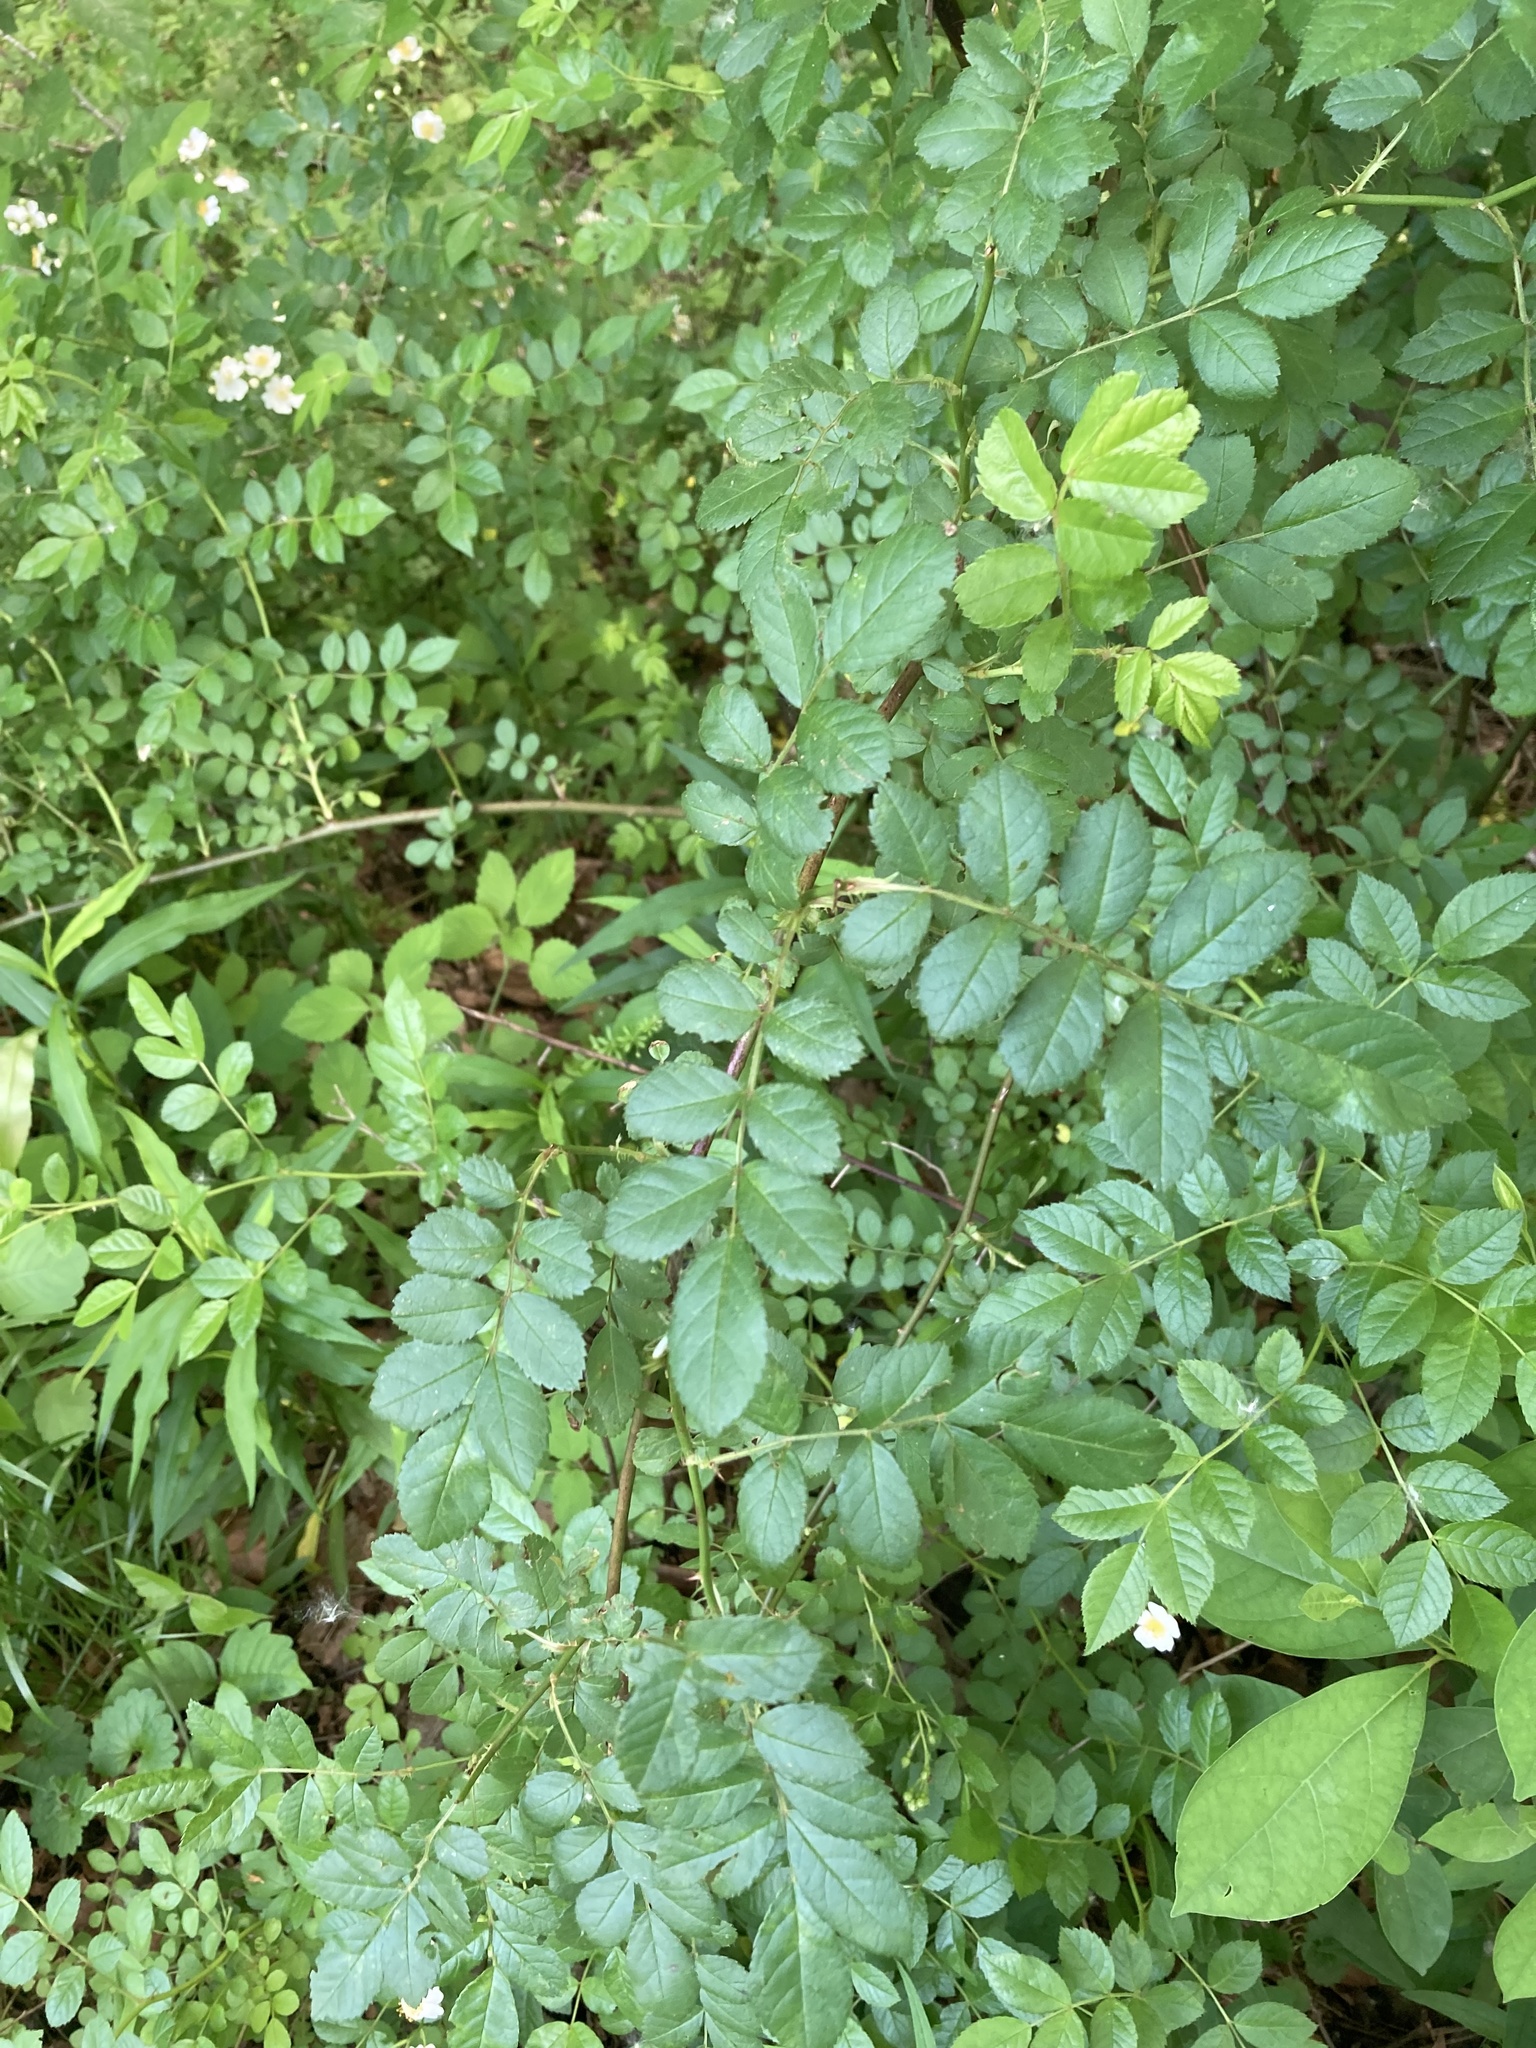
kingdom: Plantae
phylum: Tracheophyta
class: Magnoliopsida
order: Rosales
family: Rosaceae
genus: Rosa
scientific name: Rosa multiflora
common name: Multiflora rose
